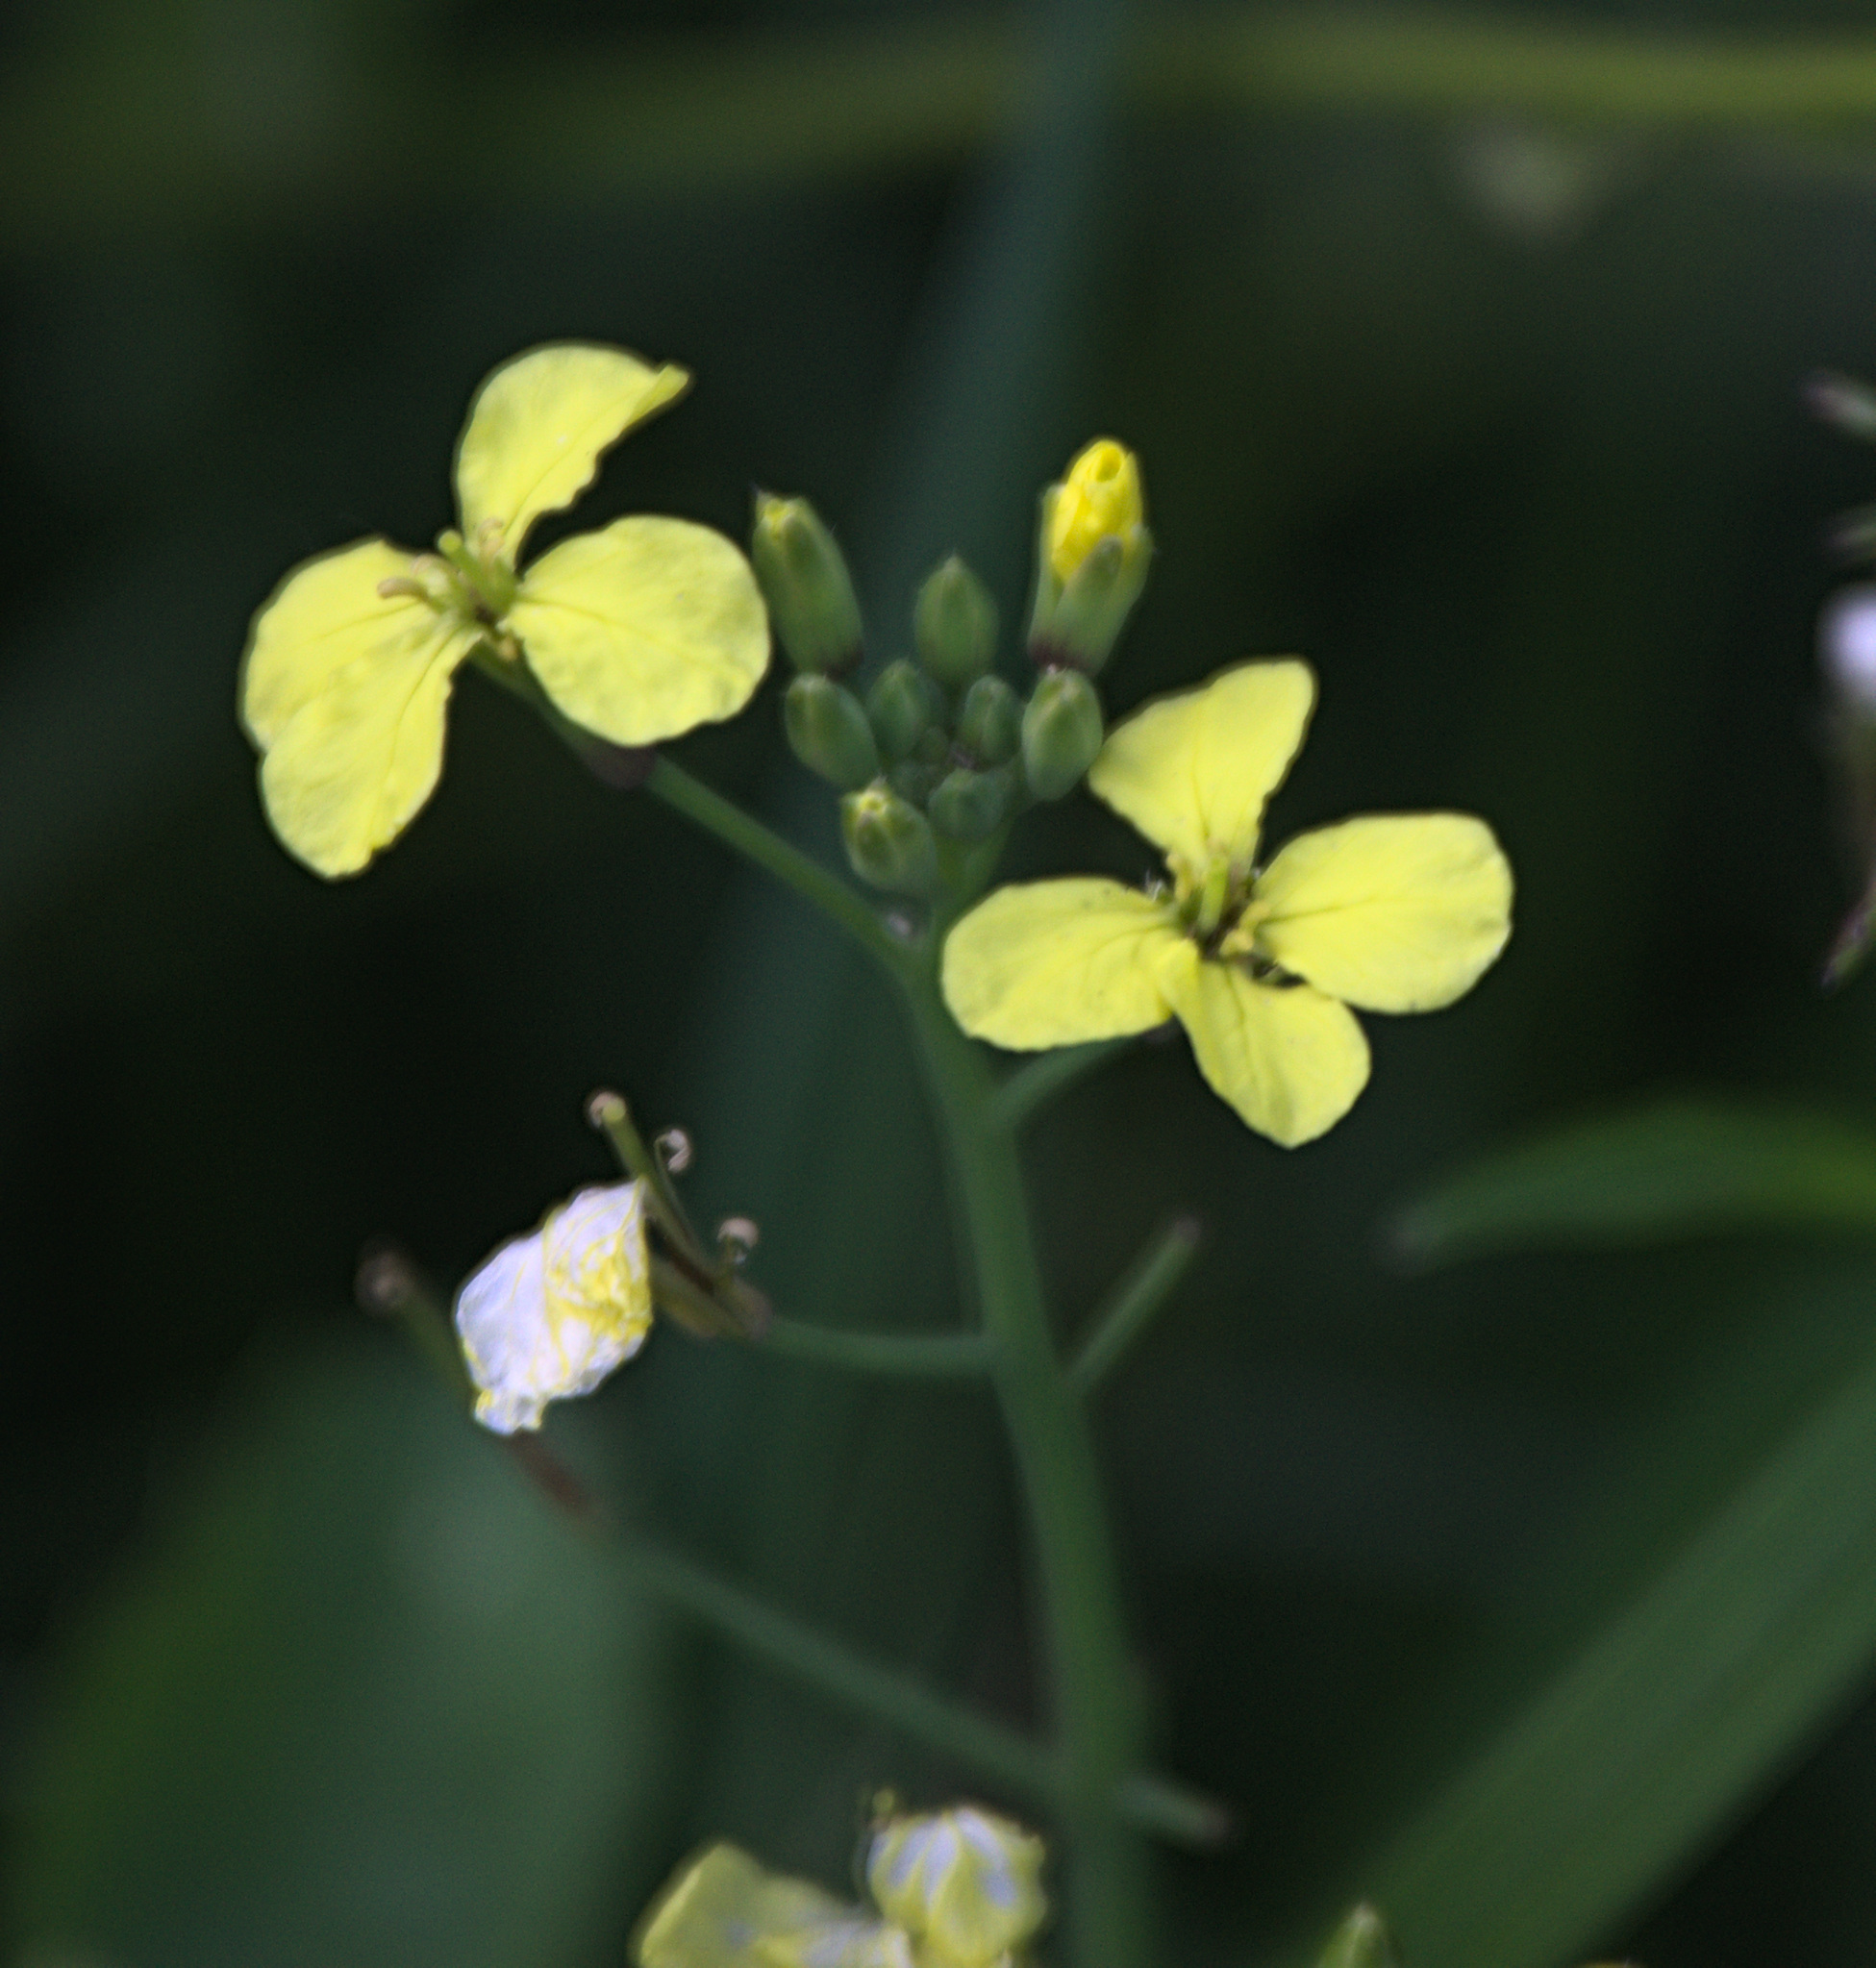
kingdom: Plantae
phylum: Tracheophyta
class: Magnoliopsida
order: Brassicales
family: Brassicaceae
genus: Raphanus
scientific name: Raphanus raphanistrum
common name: Wild radish
